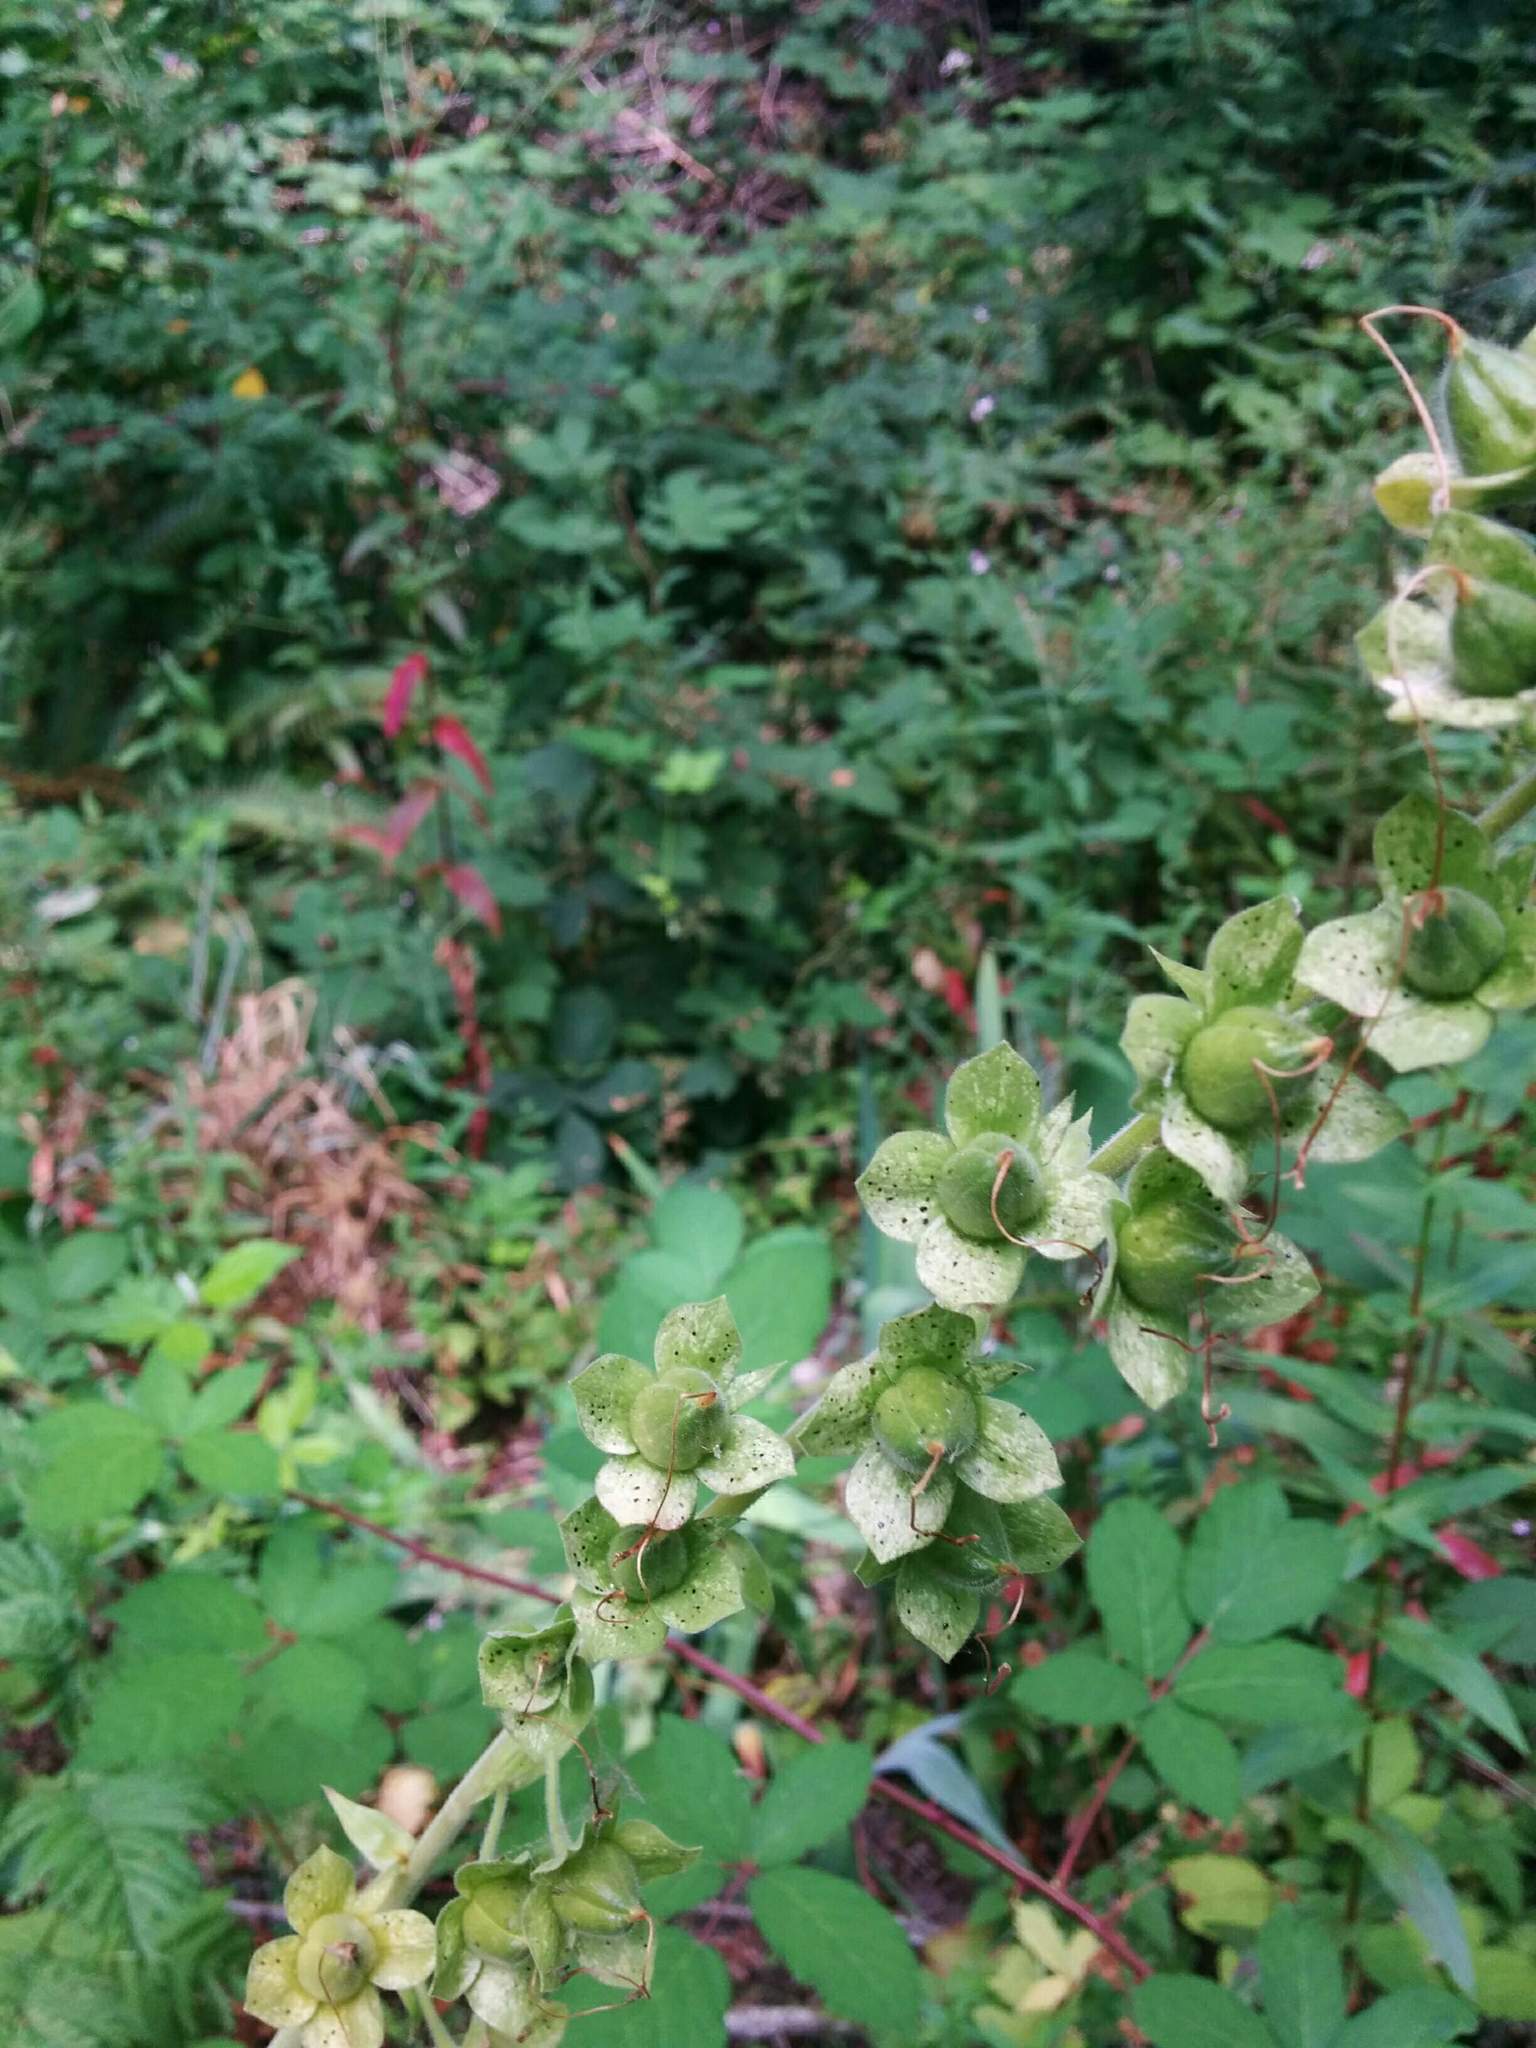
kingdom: Plantae
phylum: Tracheophyta
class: Magnoliopsida
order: Lamiales
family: Plantaginaceae
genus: Digitalis
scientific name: Digitalis purpurea
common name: Foxglove
